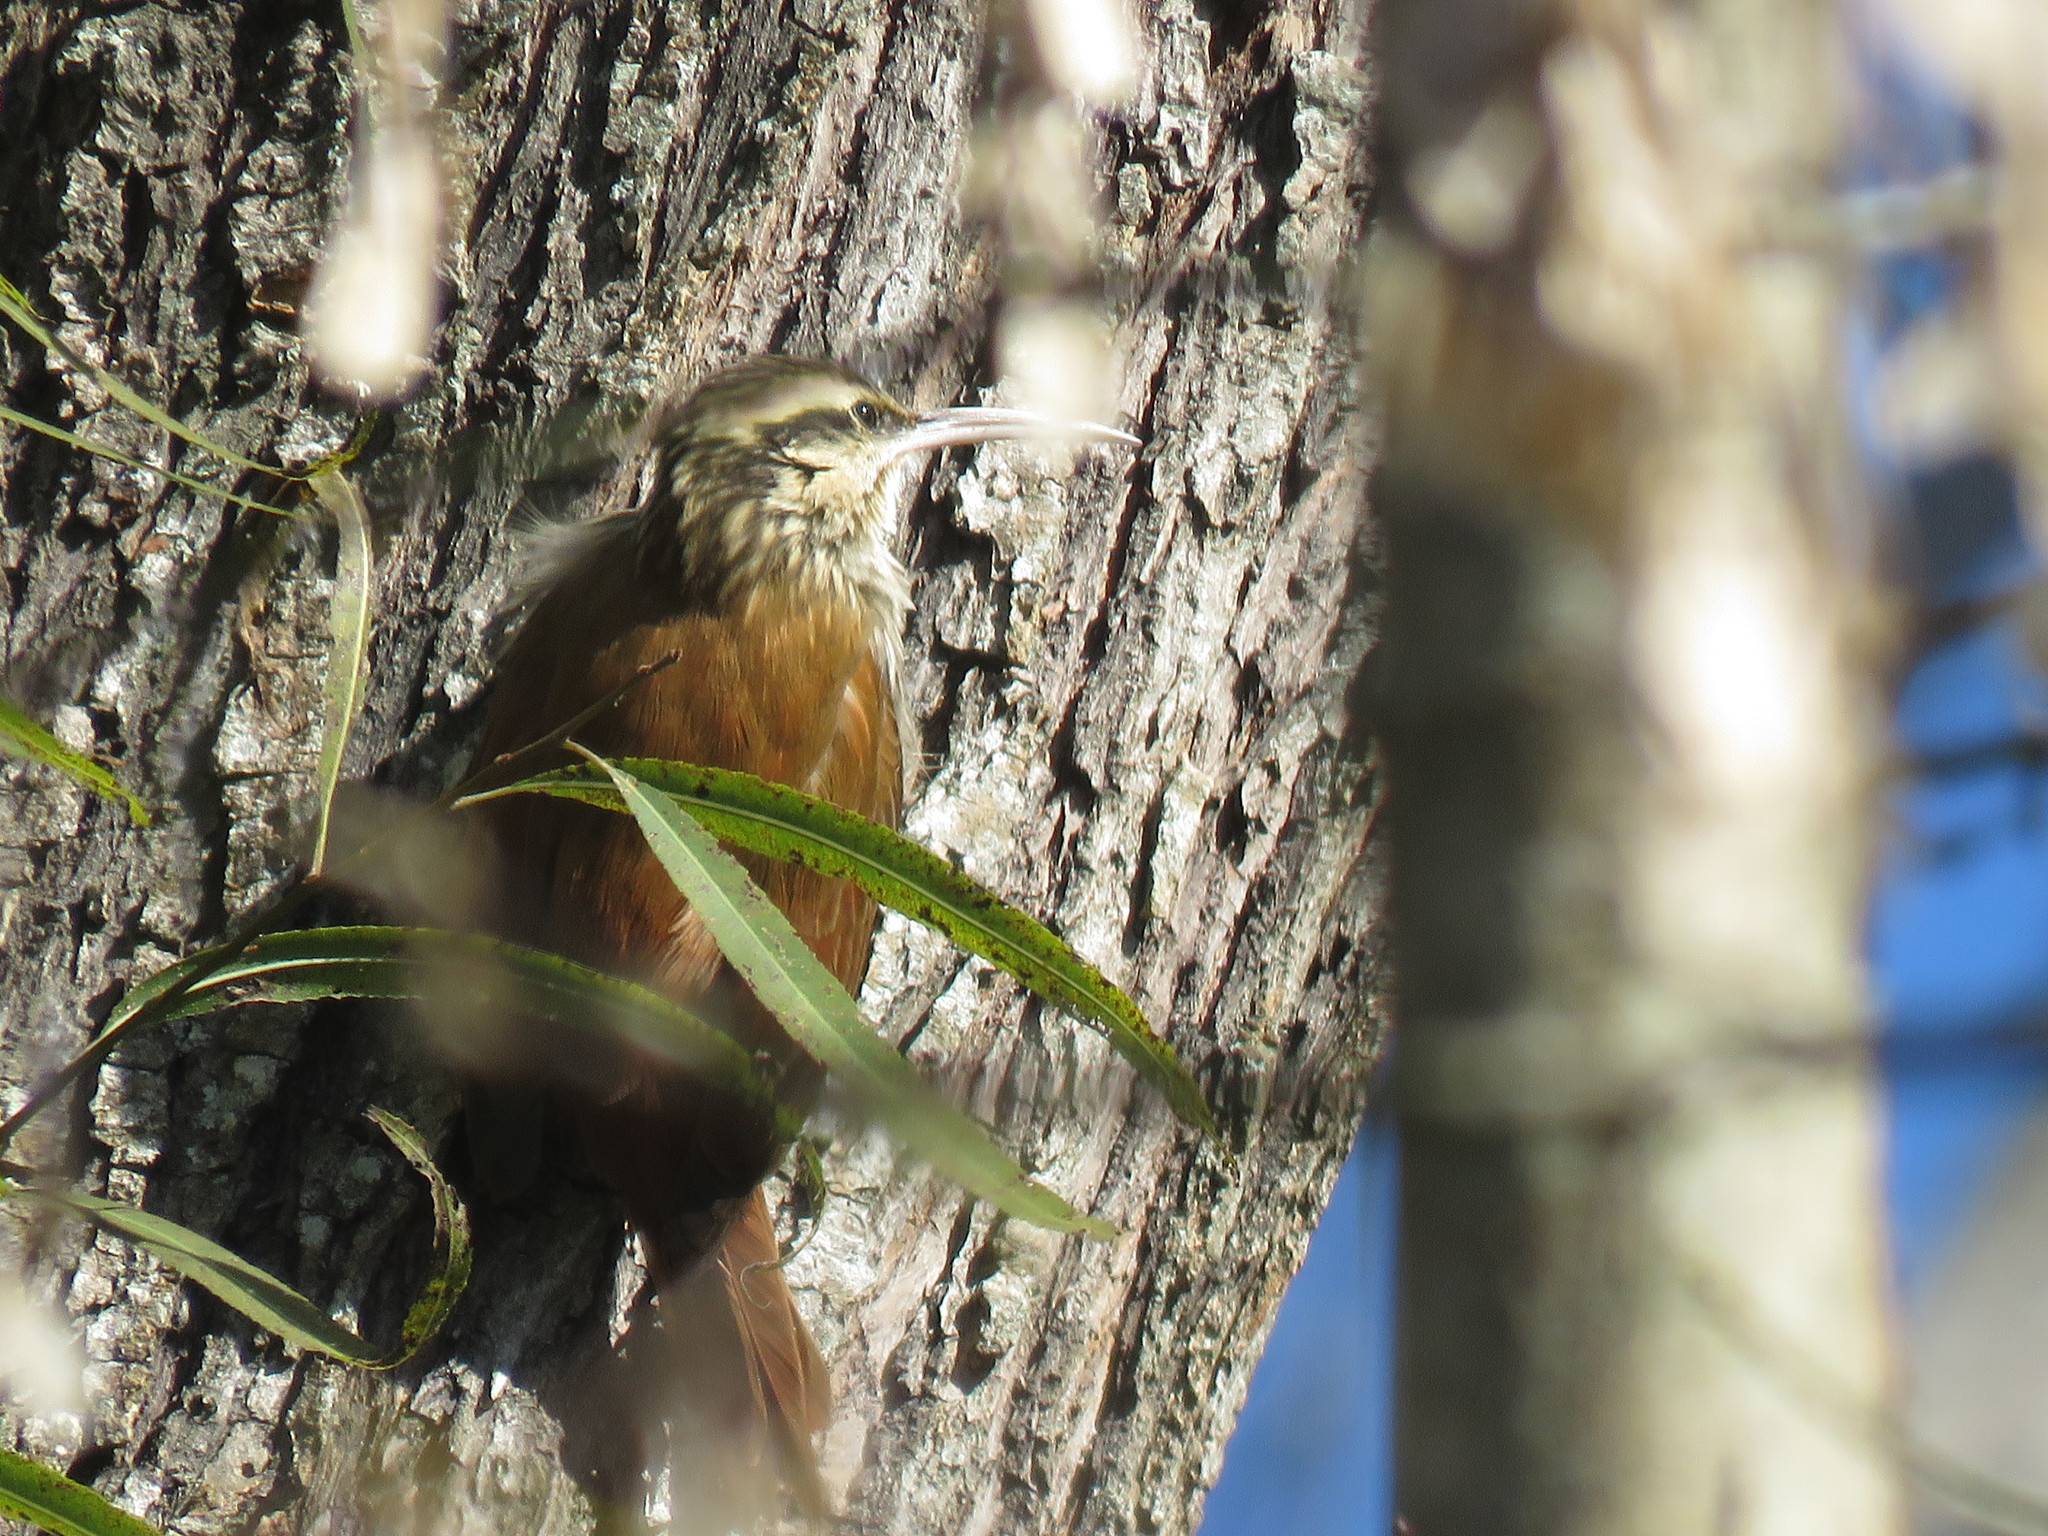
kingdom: Animalia
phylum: Chordata
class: Aves
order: Passeriformes
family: Furnariidae
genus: Lepidocolaptes
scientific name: Lepidocolaptes angustirostris
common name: Narrow-billed woodcreeper
